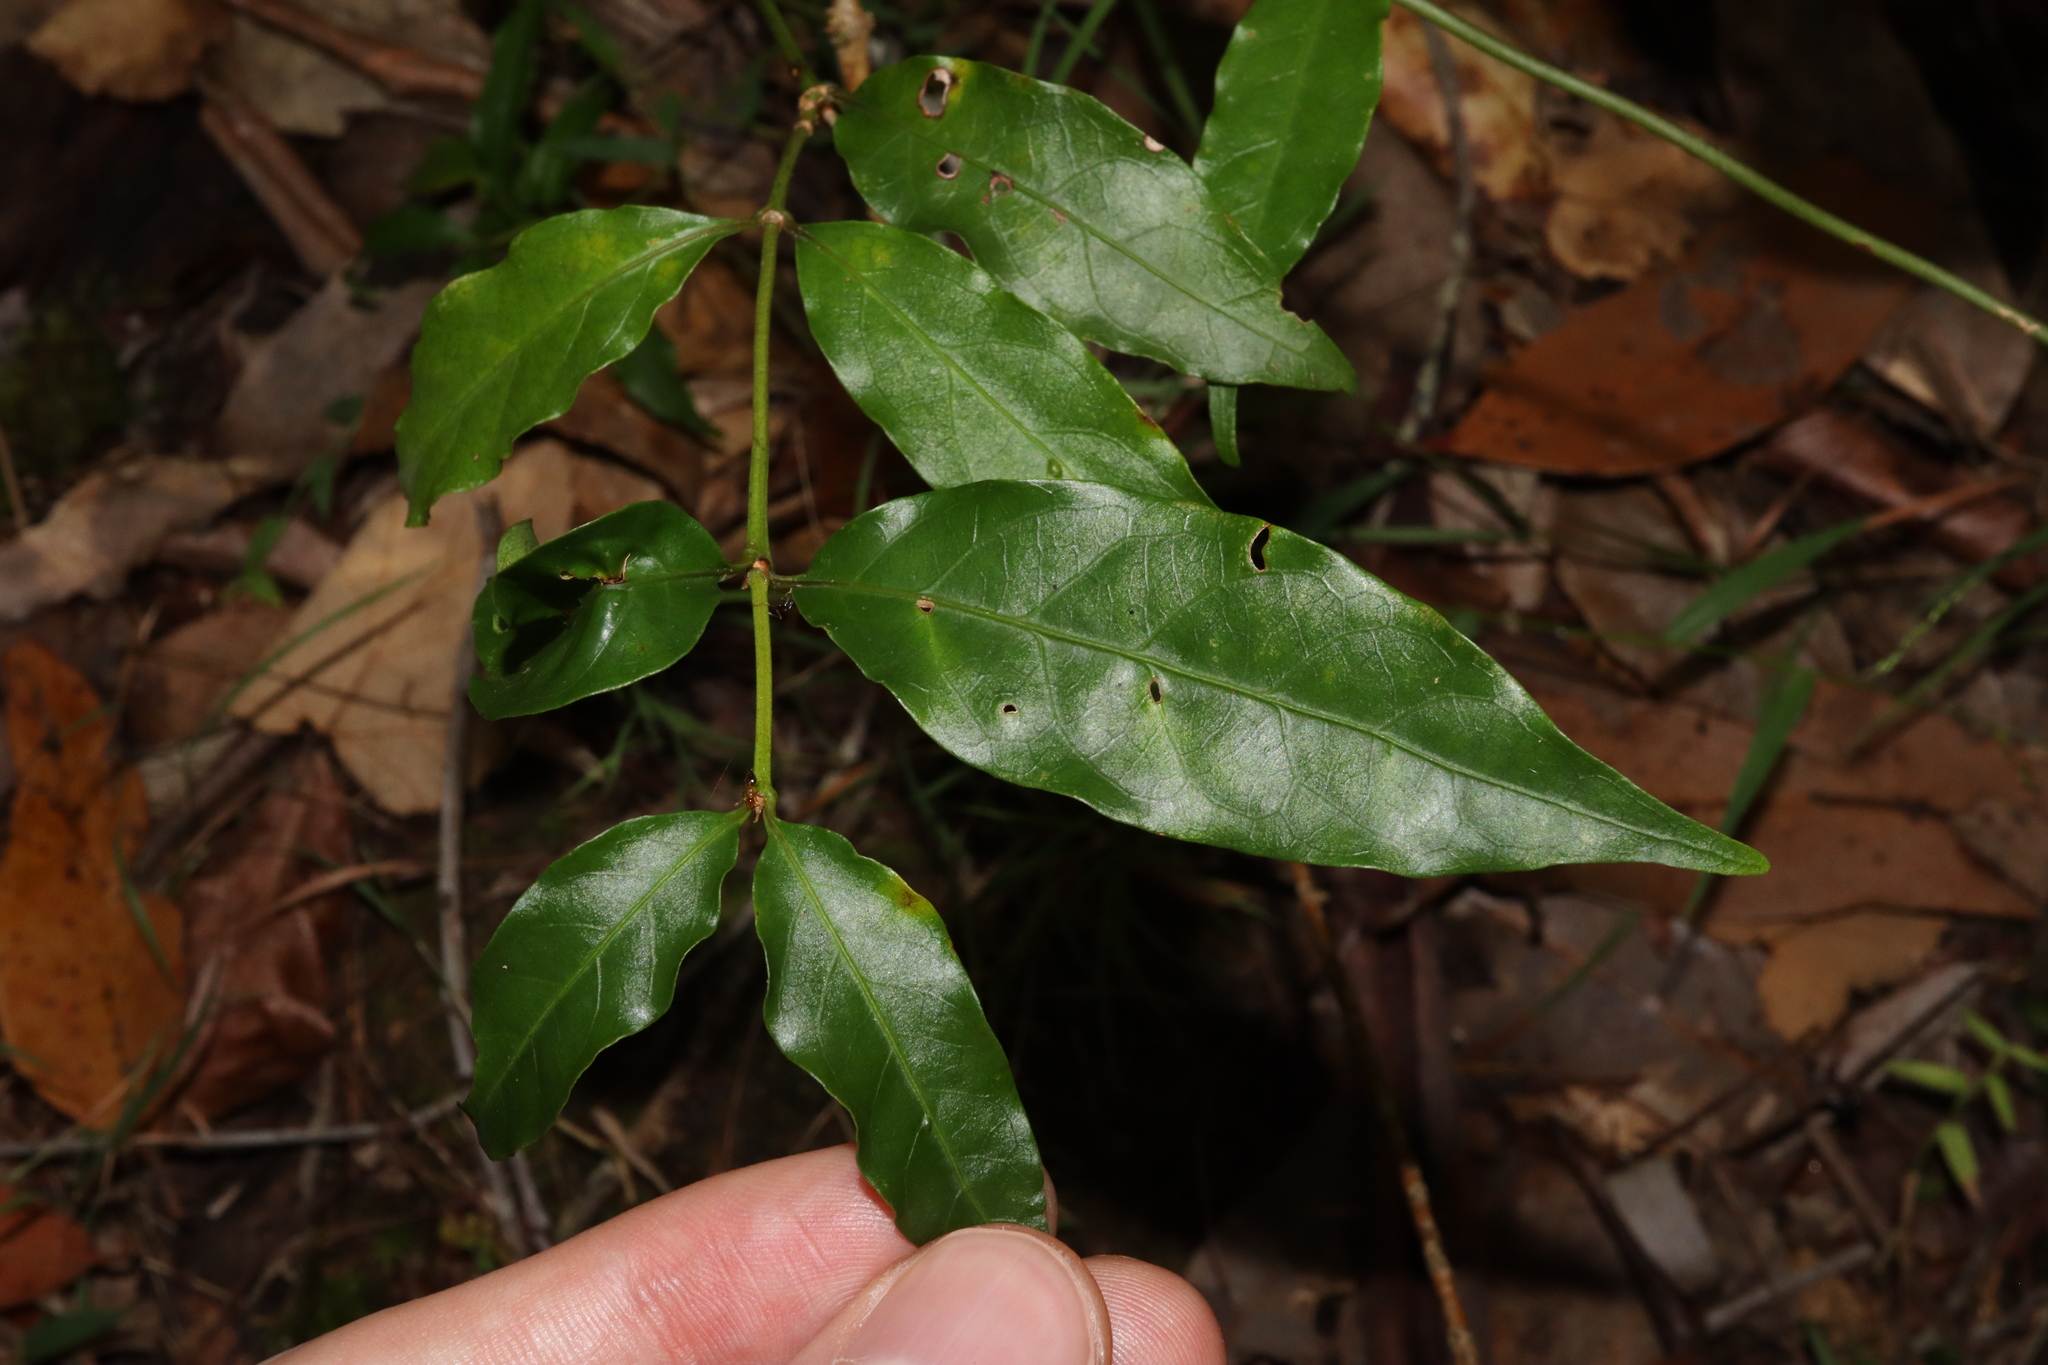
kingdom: Plantae
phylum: Tracheophyta
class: Magnoliopsida
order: Gentianales
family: Rubiaceae
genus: Gynochthodes
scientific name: Gynochthodes jasminoides
